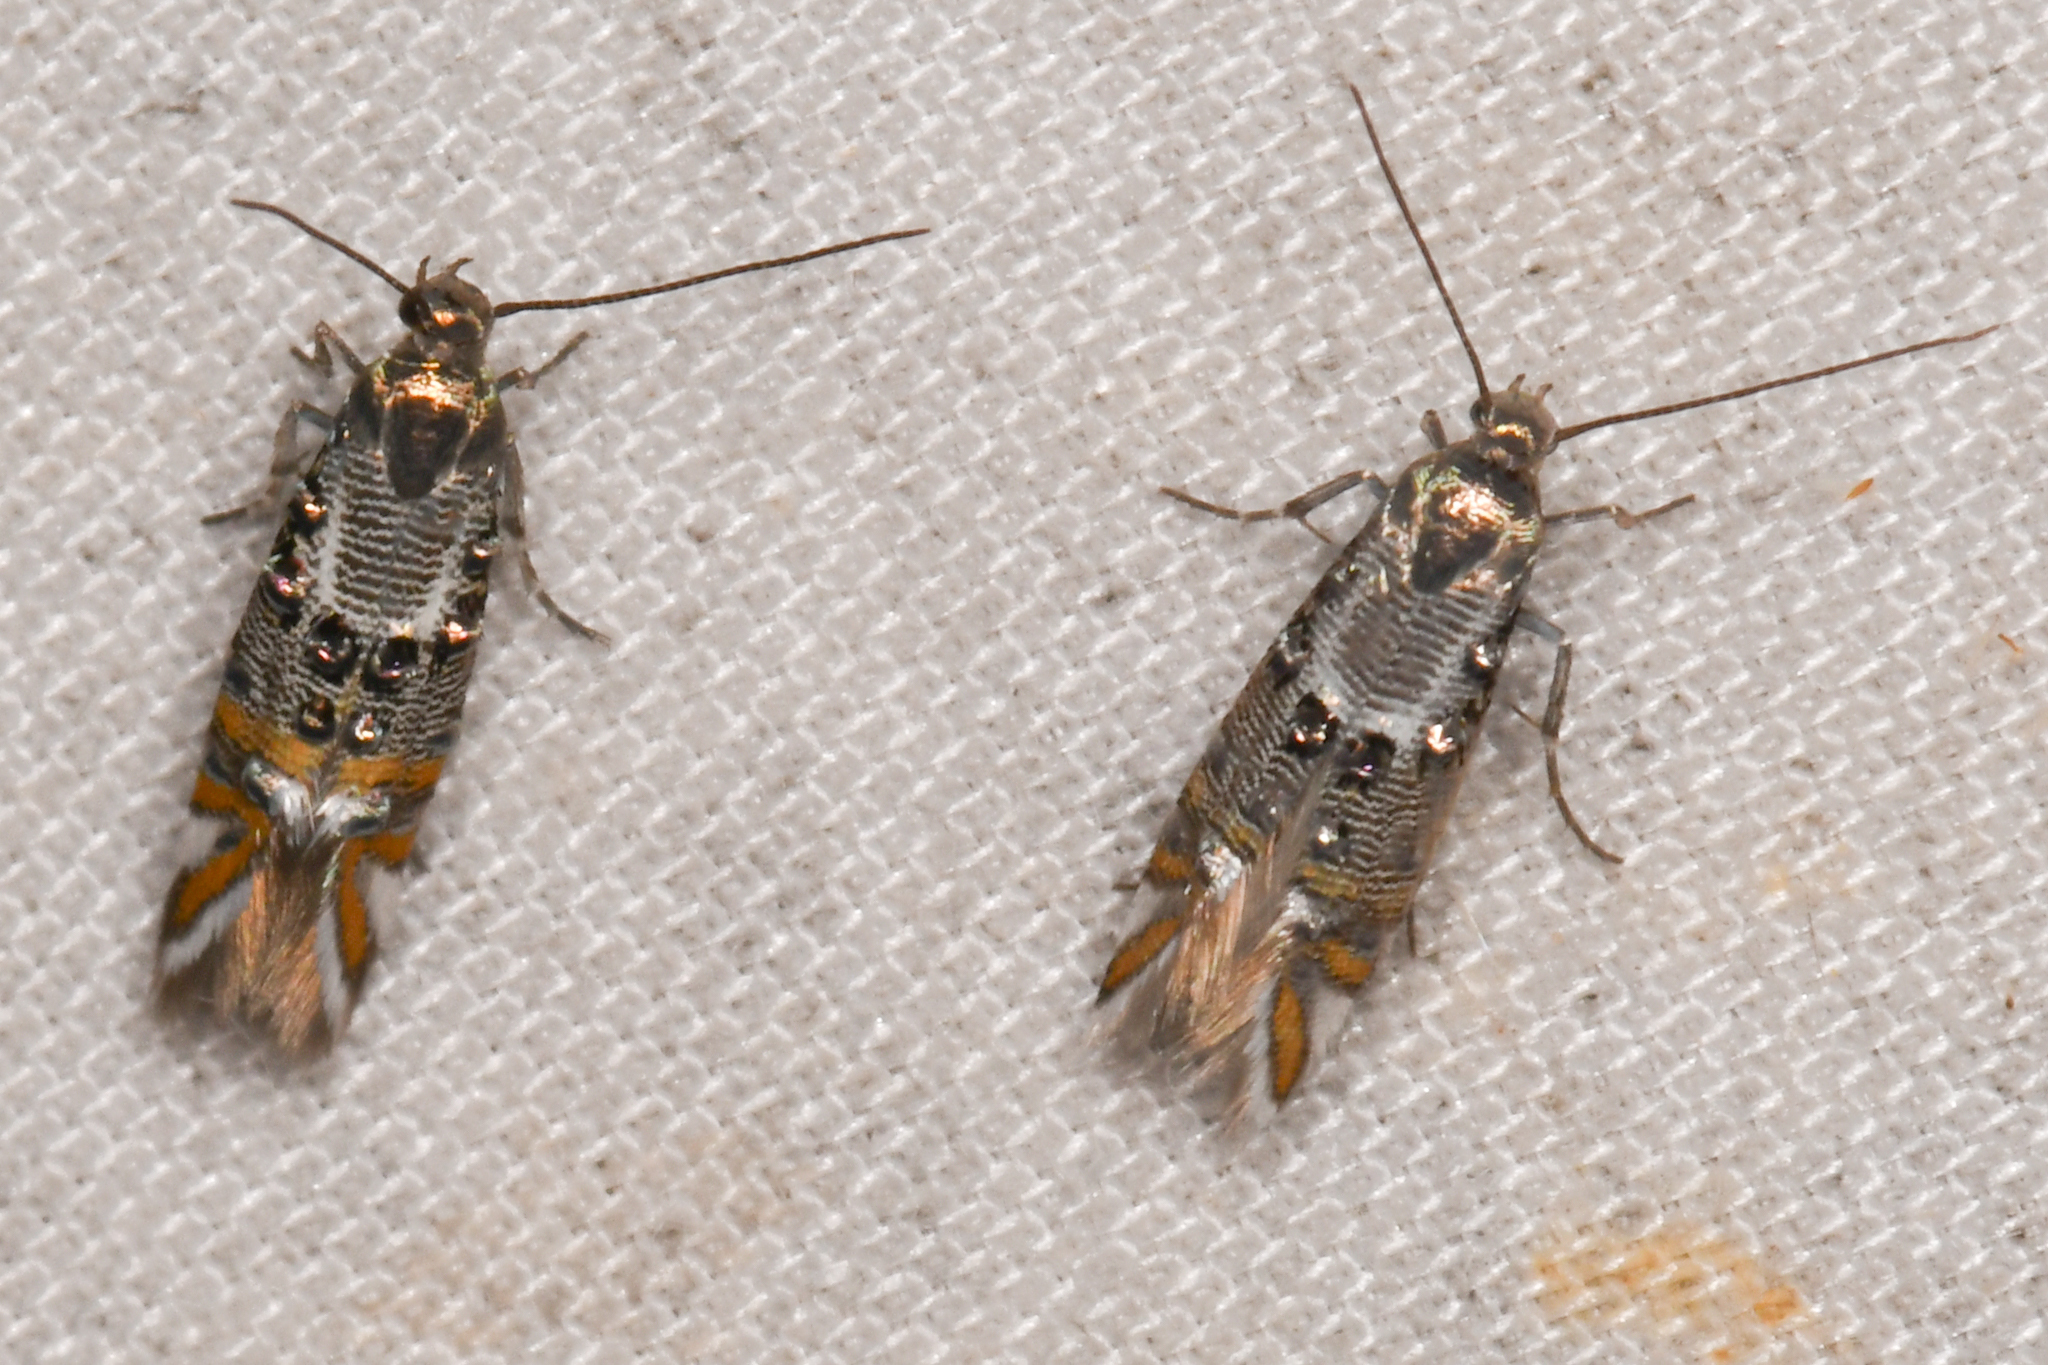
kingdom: Animalia
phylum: Arthropoda
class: Insecta
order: Lepidoptera
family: Heliodinidae
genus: Lithariapteryx
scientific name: Lithariapteryx jubarella
